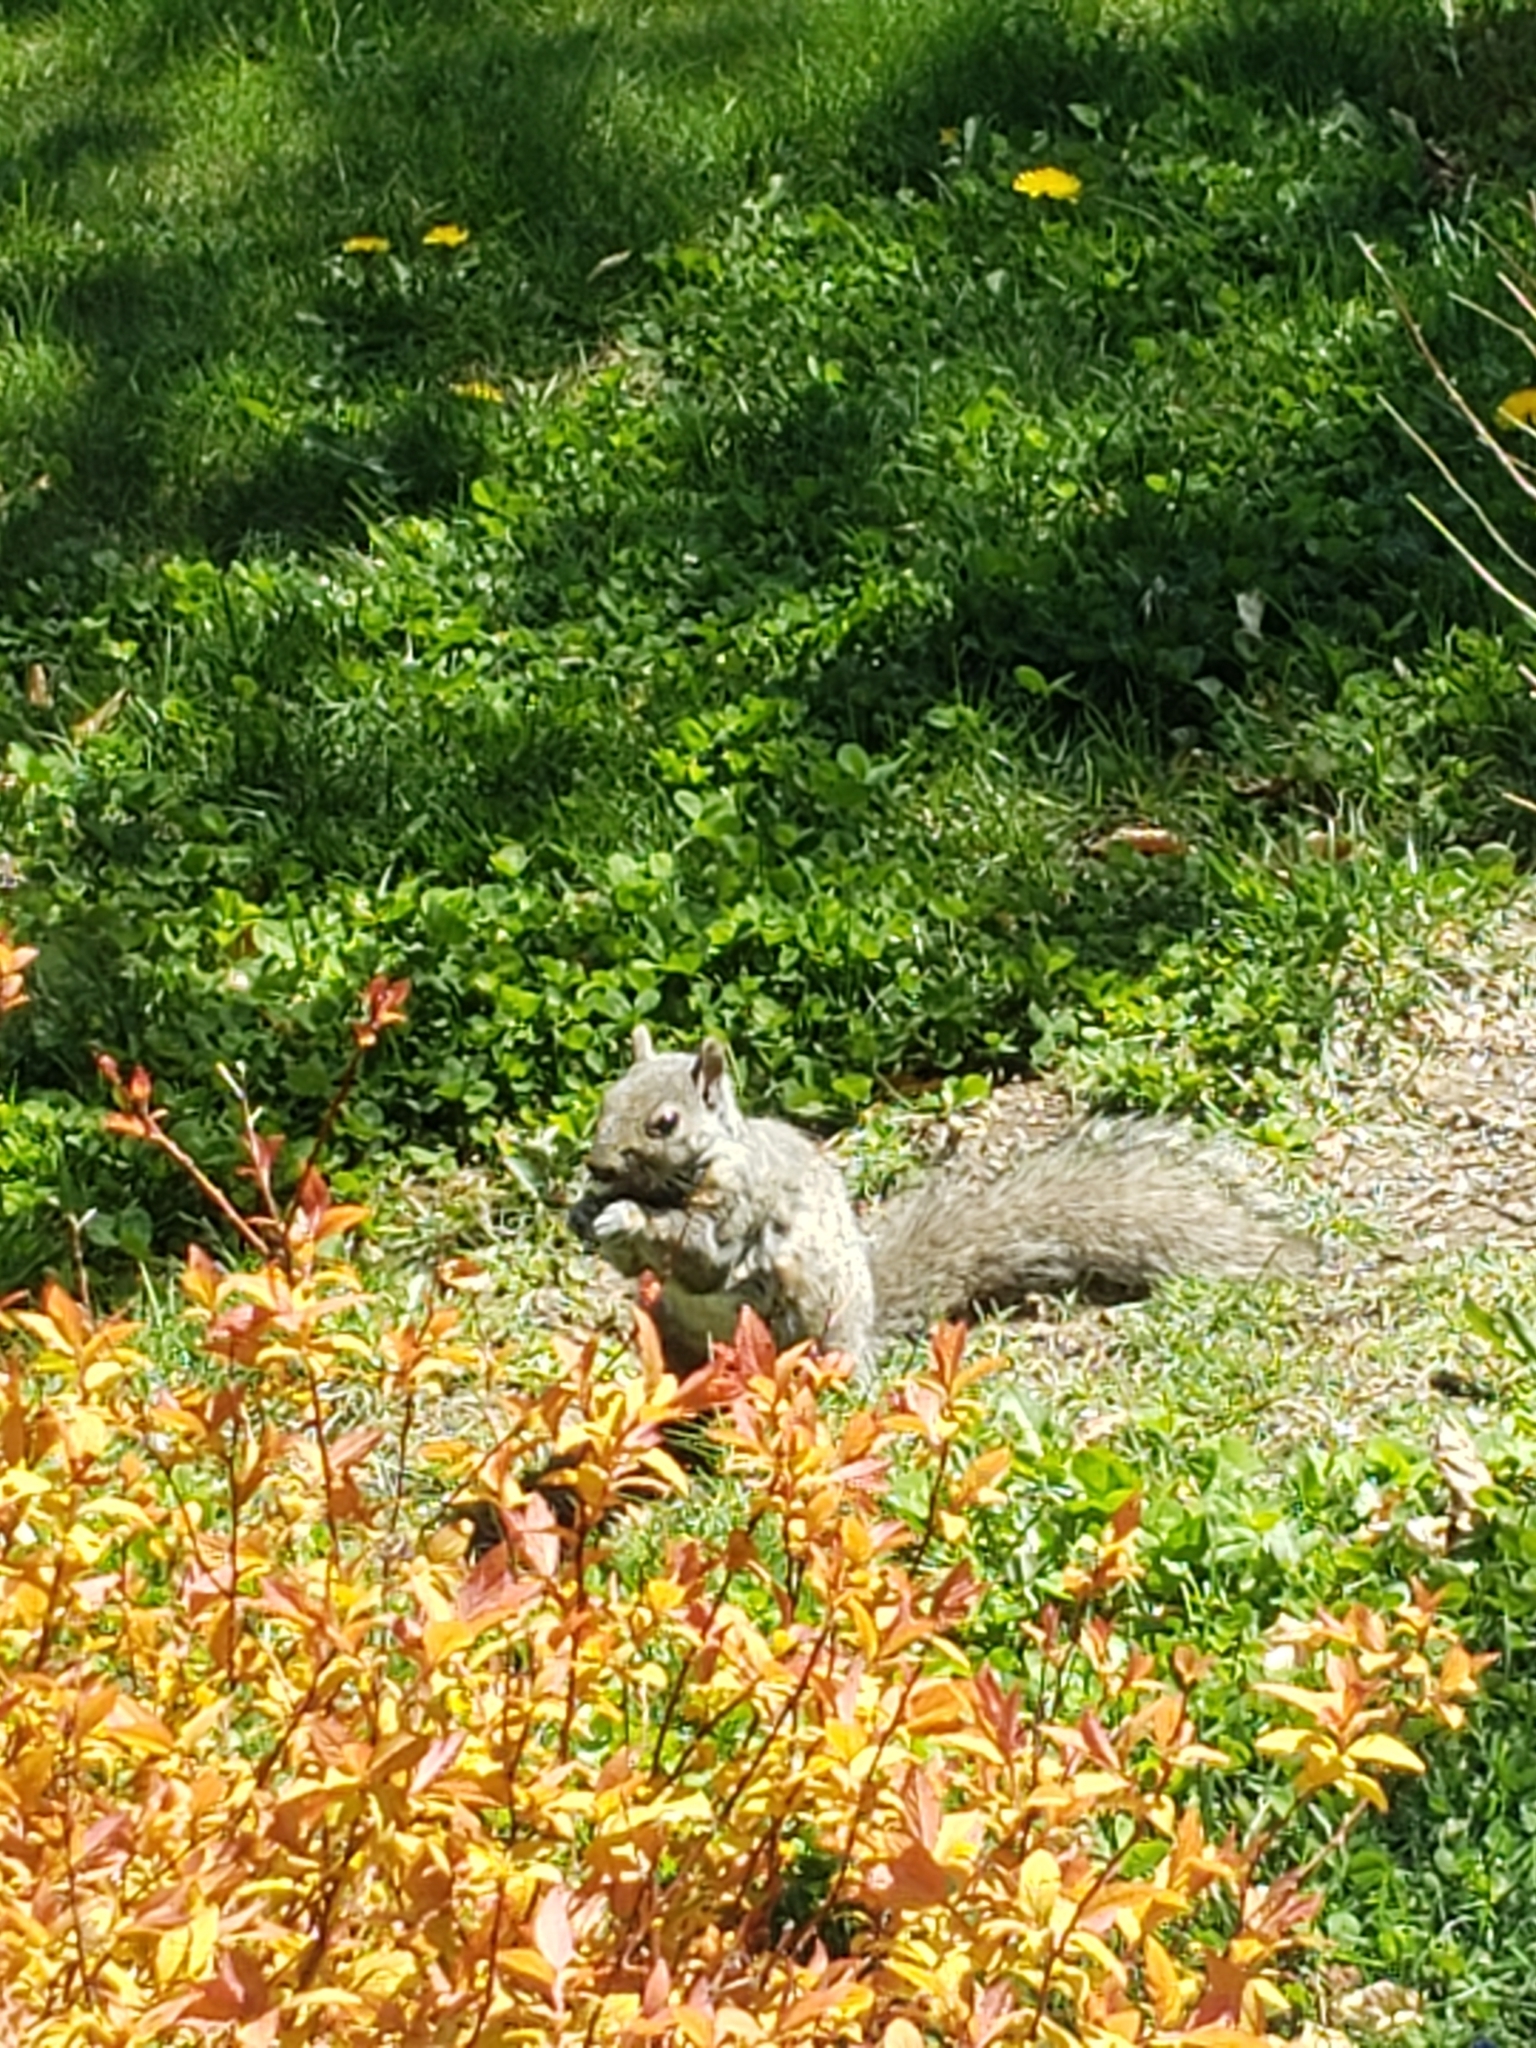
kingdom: Animalia
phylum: Chordata
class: Mammalia
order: Rodentia
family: Sciuridae
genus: Sciurus
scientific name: Sciurus carolinensis
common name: Eastern gray squirrel
